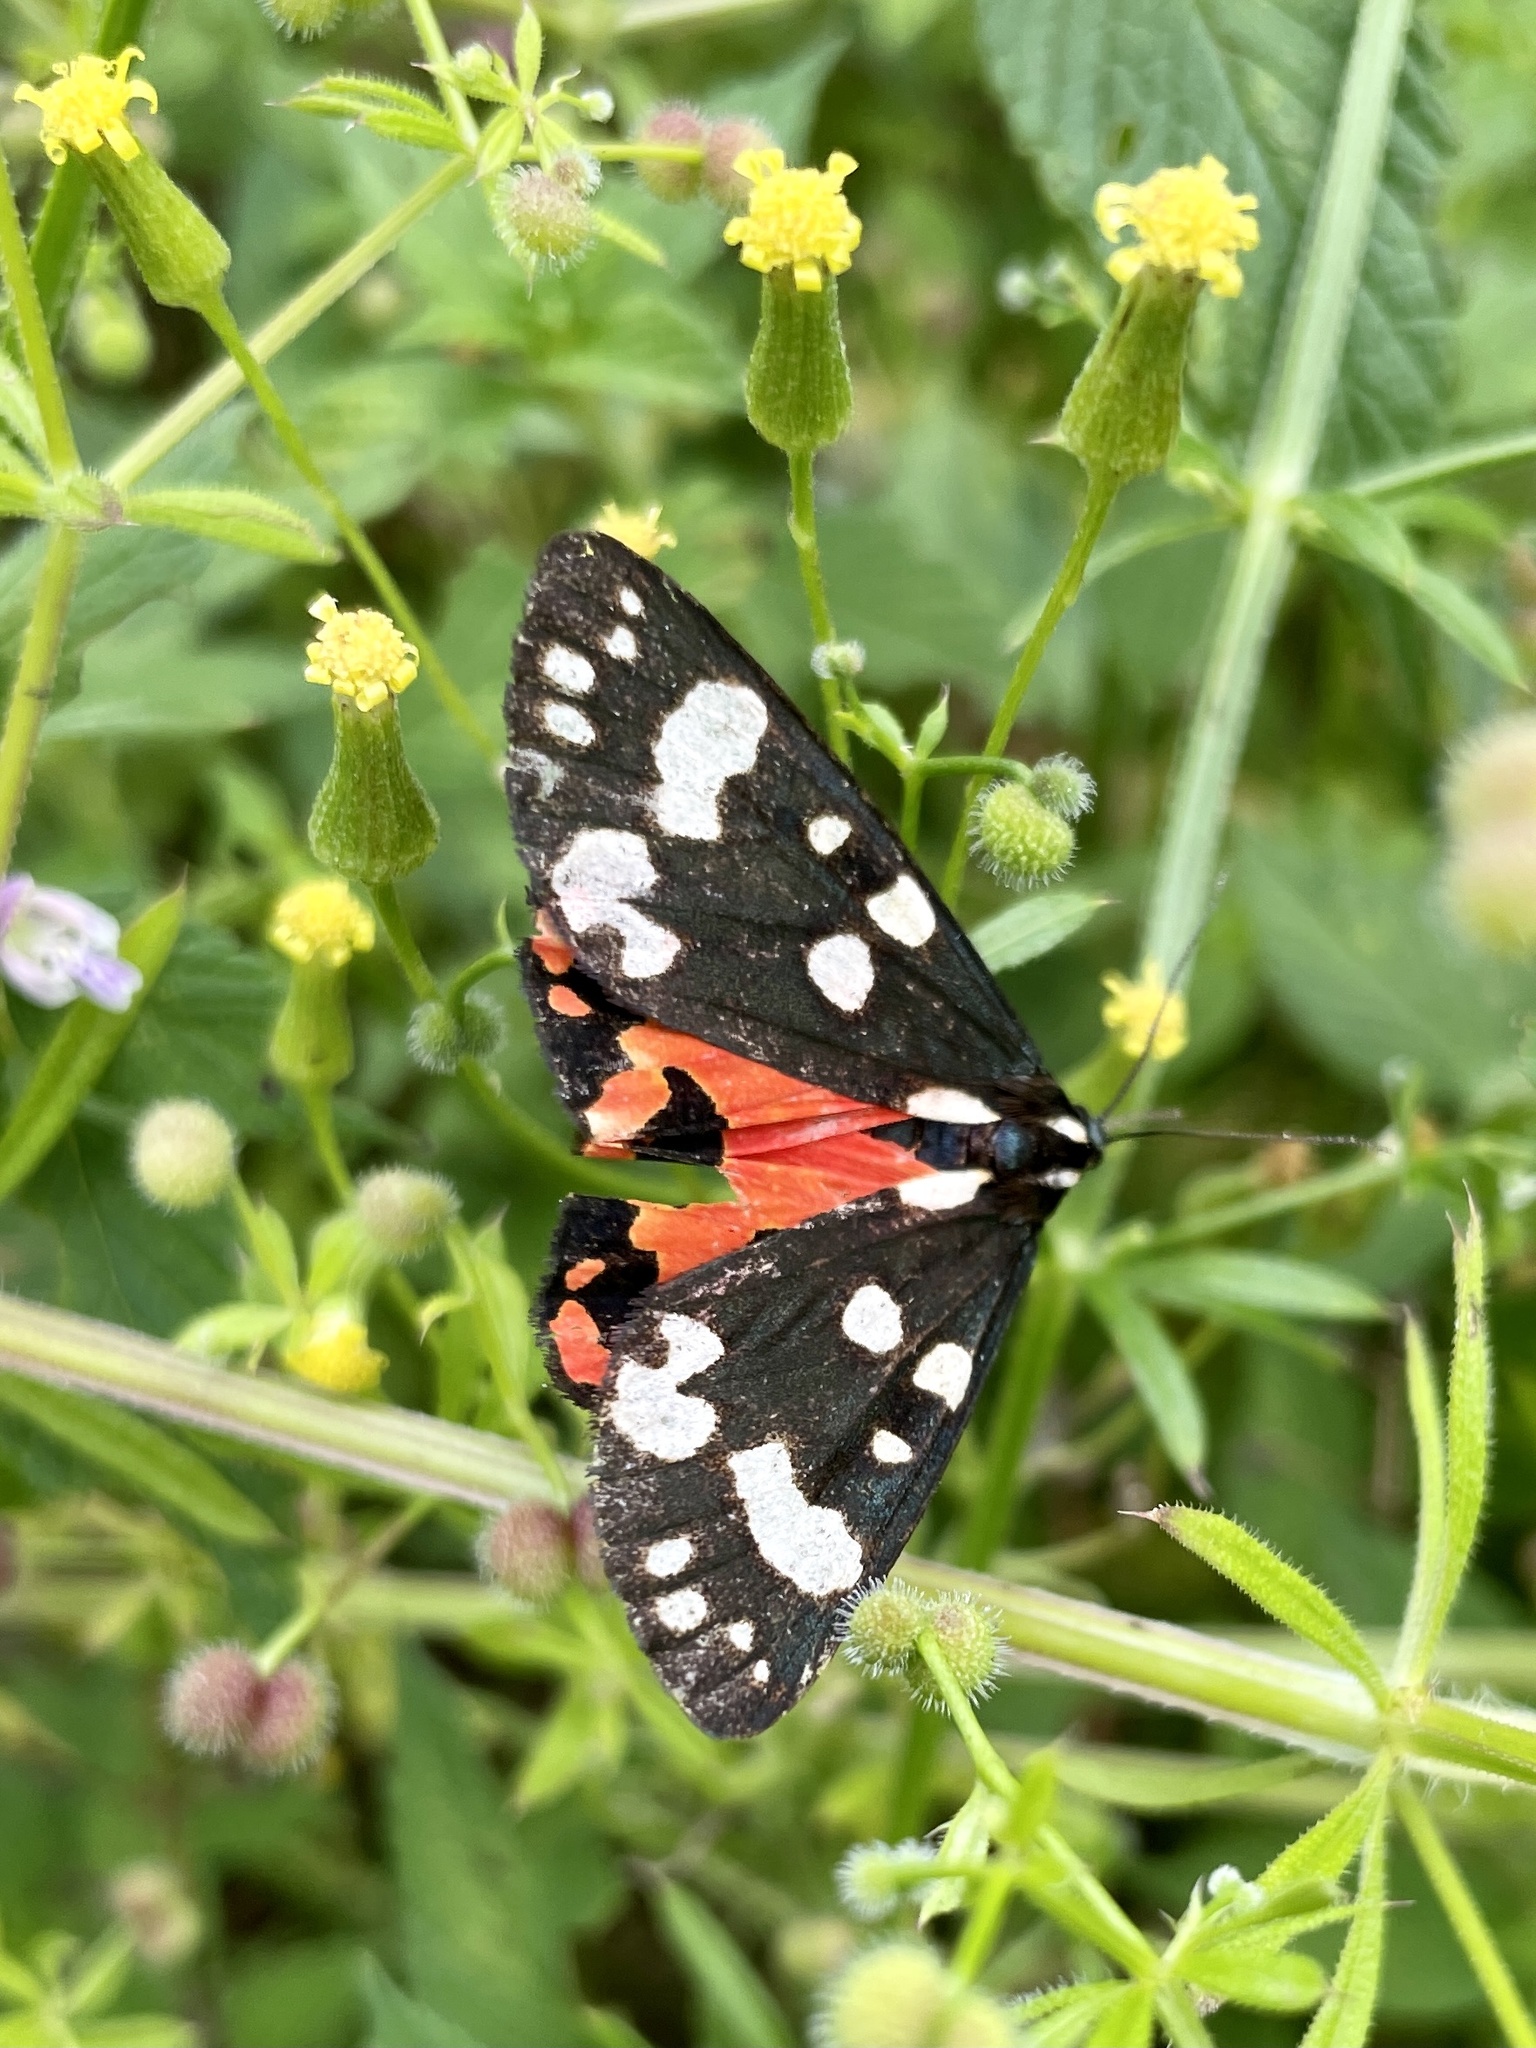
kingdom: Animalia
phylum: Arthropoda
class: Insecta
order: Lepidoptera
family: Erebidae
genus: Callimorpha
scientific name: Callimorpha dominula
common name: Scarlet tiger
